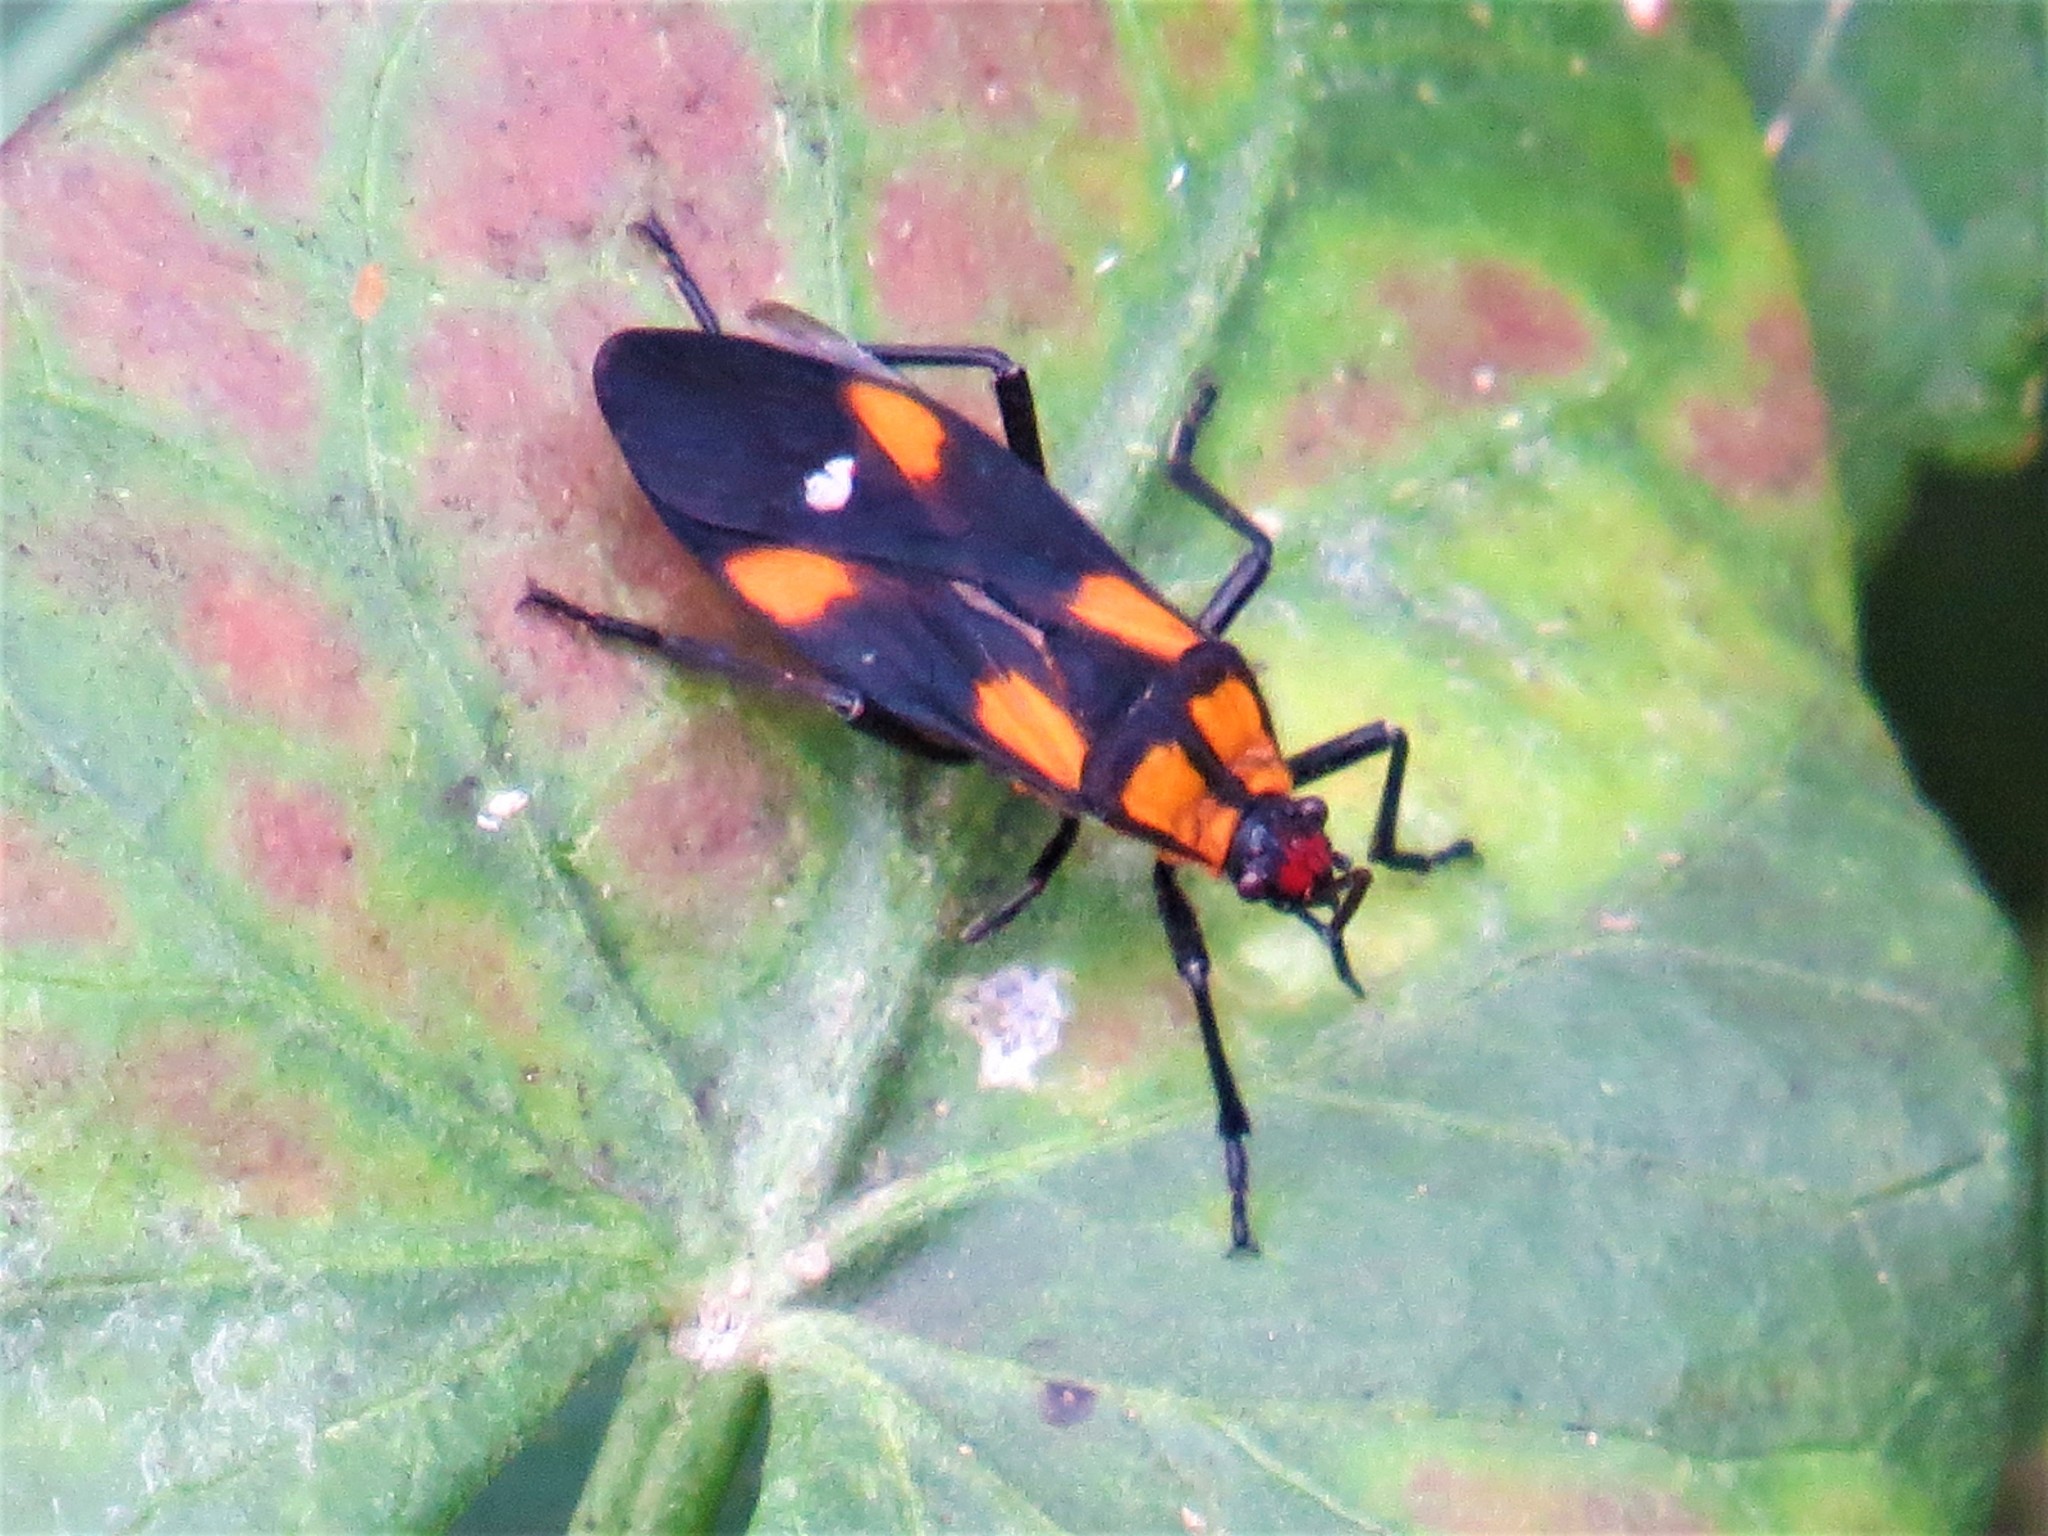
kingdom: Animalia
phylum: Arthropoda
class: Insecta
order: Hemiptera
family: Lygaeidae
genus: Oncopeltus
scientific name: Oncopeltus sexmaculatus
